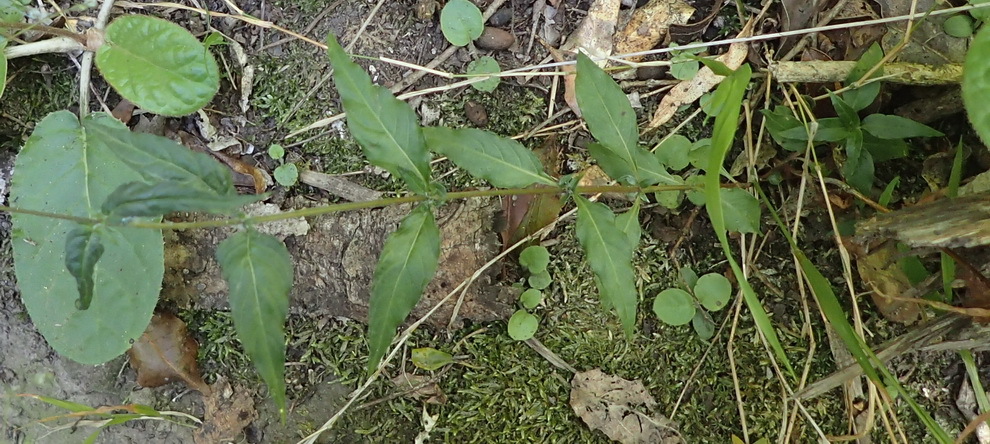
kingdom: Plantae
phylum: Tracheophyta
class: Magnoliopsida
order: Gentianales
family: Rubiaceae
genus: Galopina
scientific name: Galopina circaeoides
